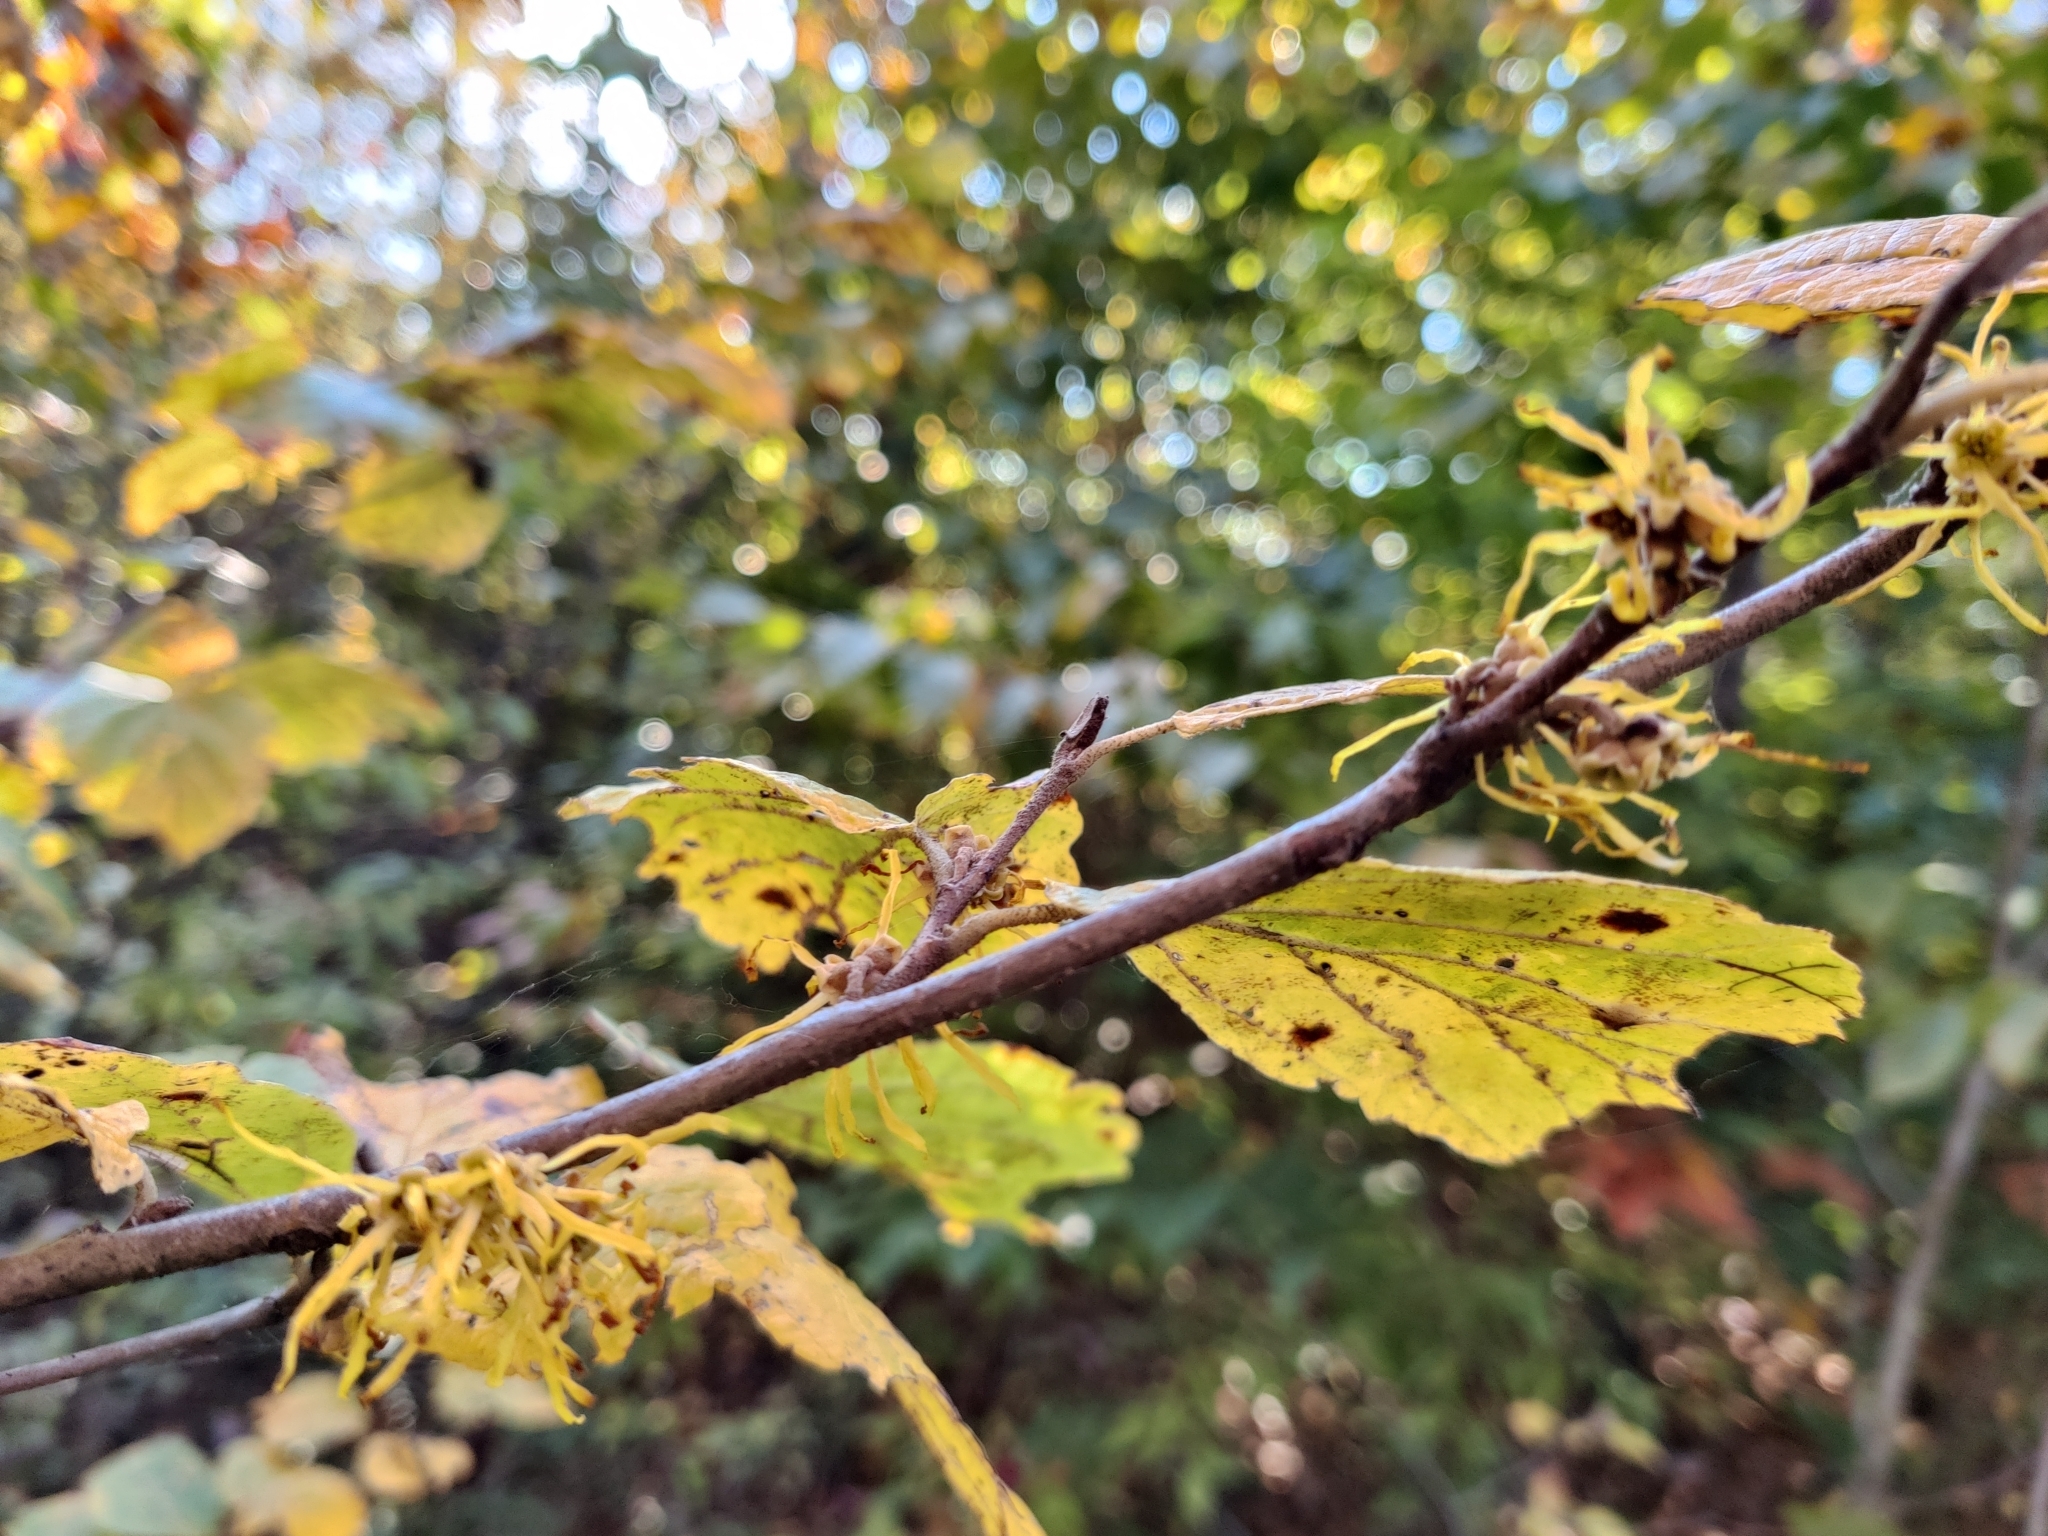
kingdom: Plantae
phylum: Tracheophyta
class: Magnoliopsida
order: Saxifragales
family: Hamamelidaceae
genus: Hamamelis
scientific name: Hamamelis virginiana
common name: Witch-hazel
